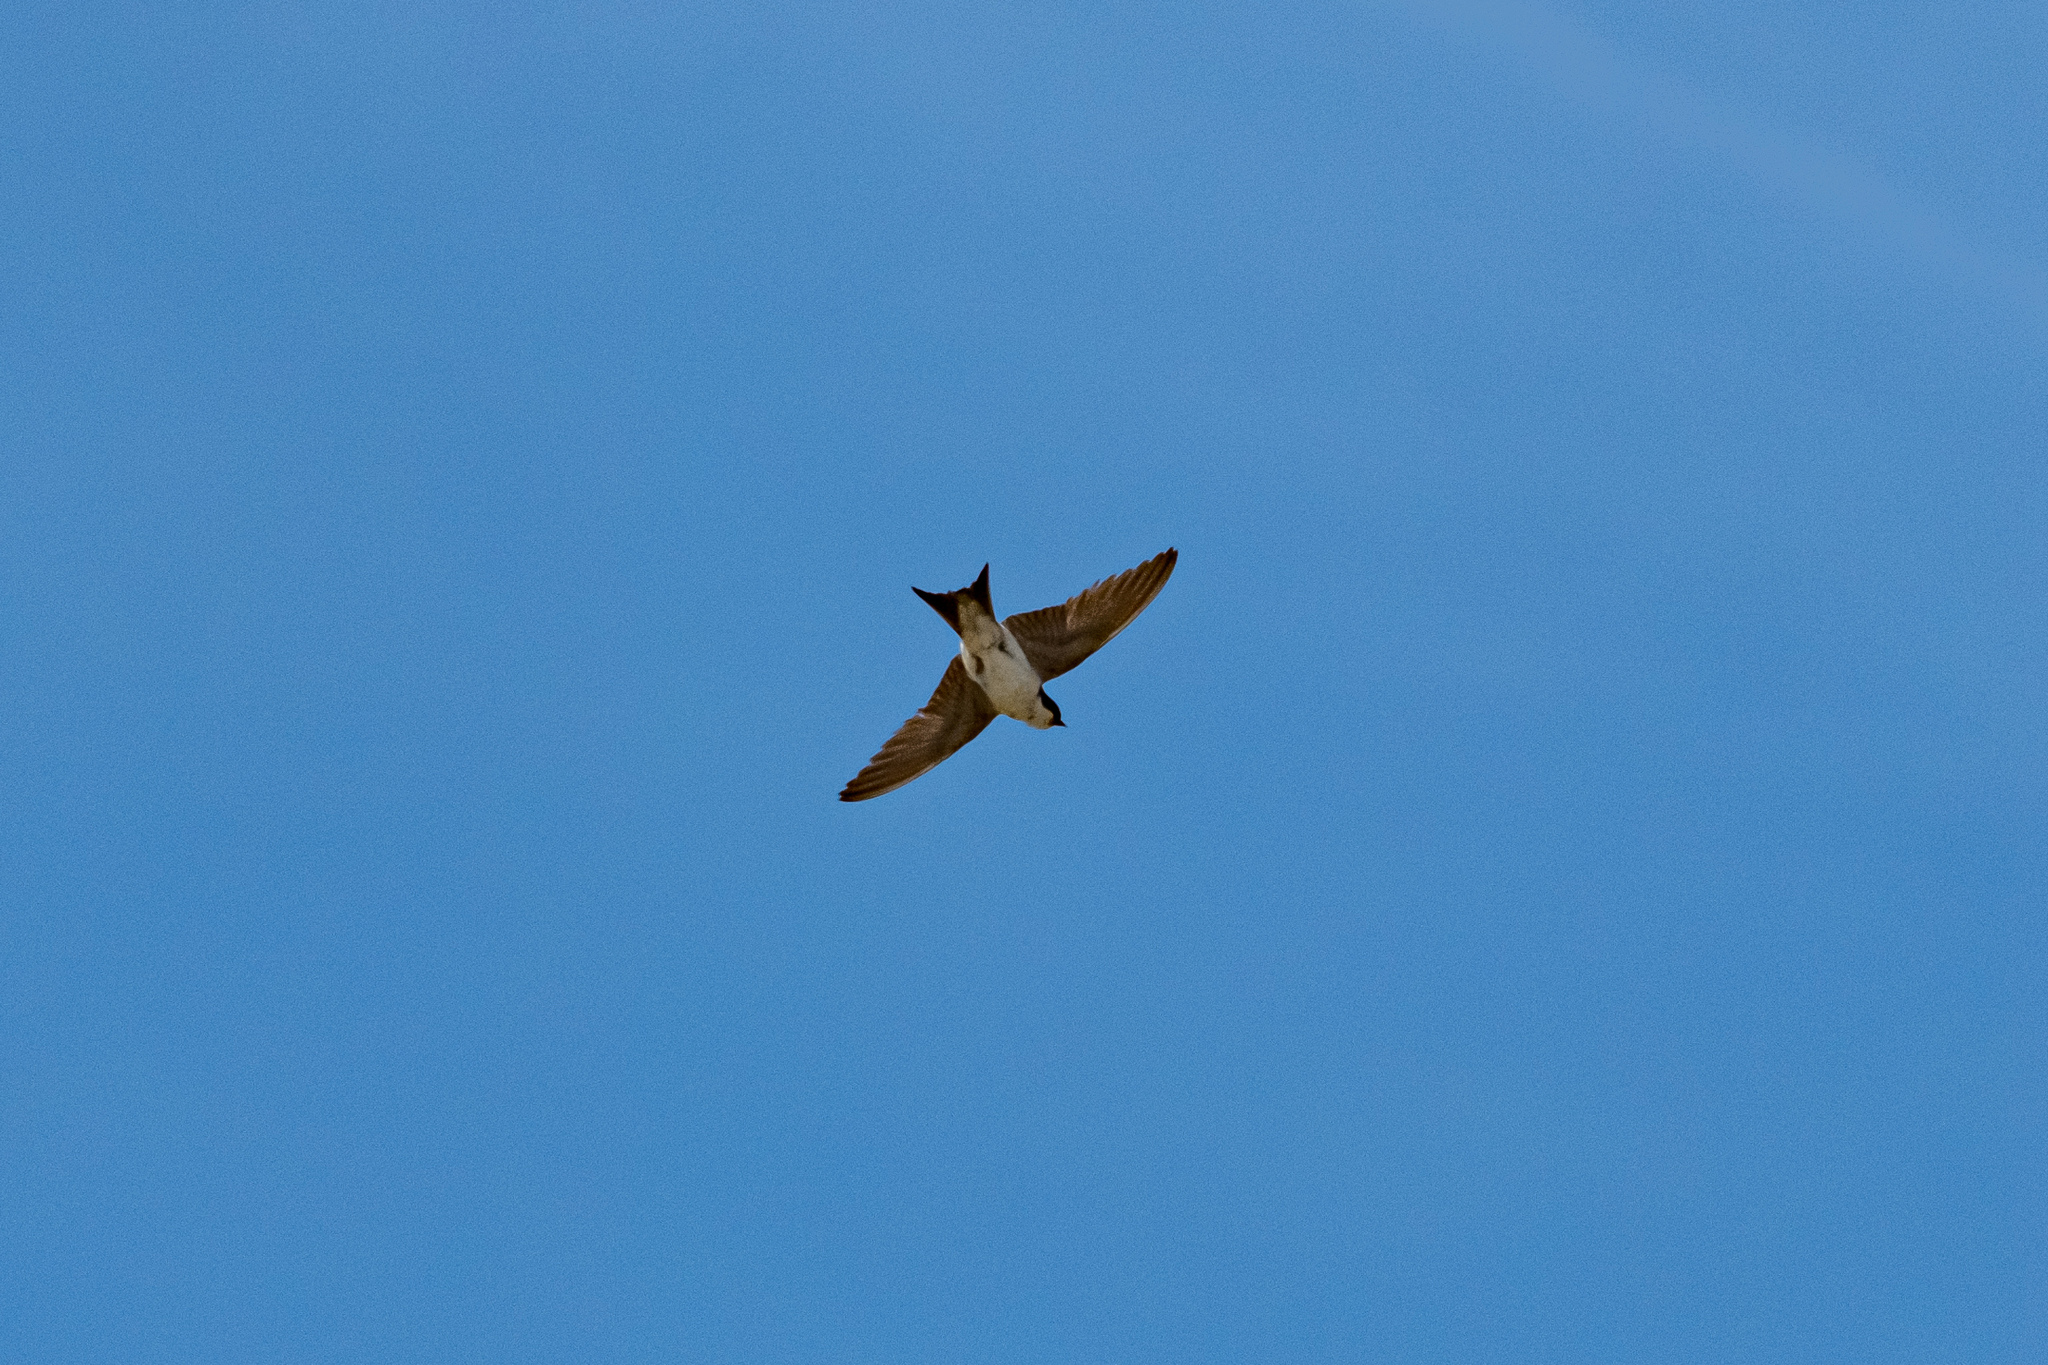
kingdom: Animalia
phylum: Chordata
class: Aves
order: Passeriformes
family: Hirundinidae
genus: Delichon
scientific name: Delichon urbicum
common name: Common house martin
